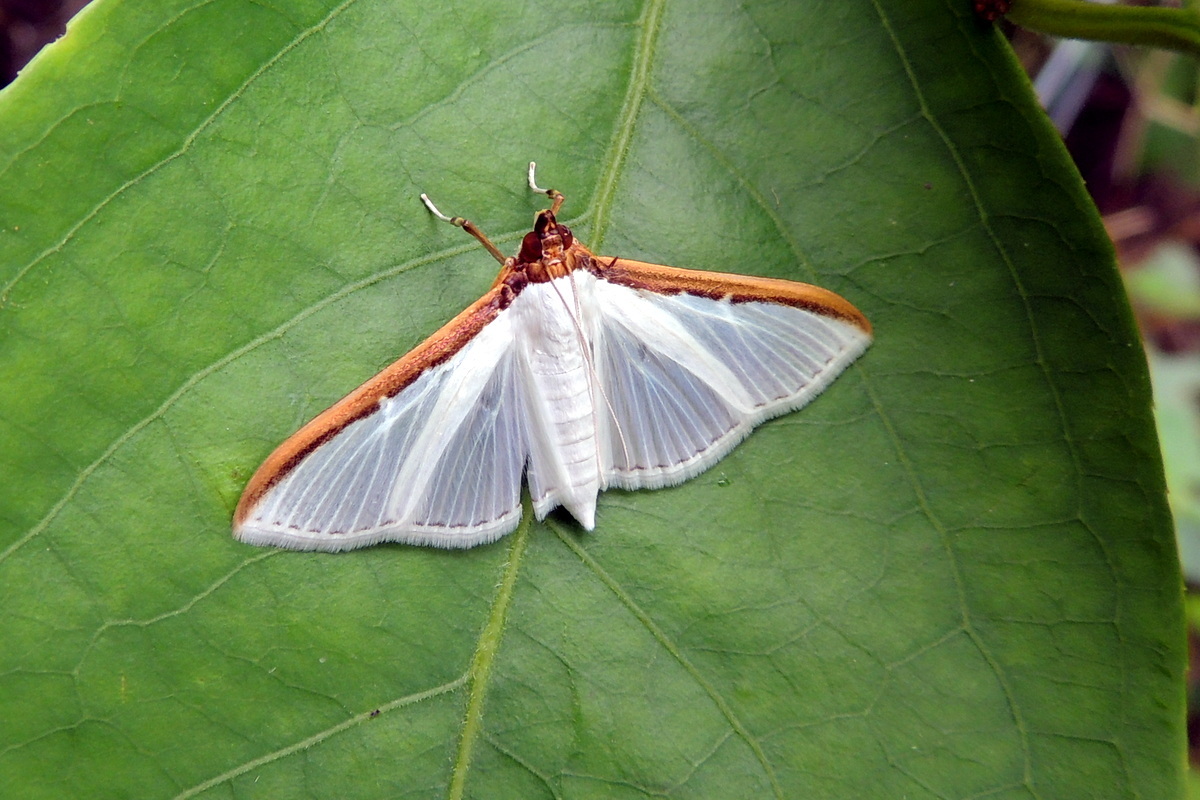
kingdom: Animalia
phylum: Arthropoda
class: Insecta
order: Lepidoptera
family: Crambidae
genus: Cydalima
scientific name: Cydalima laticostalis
